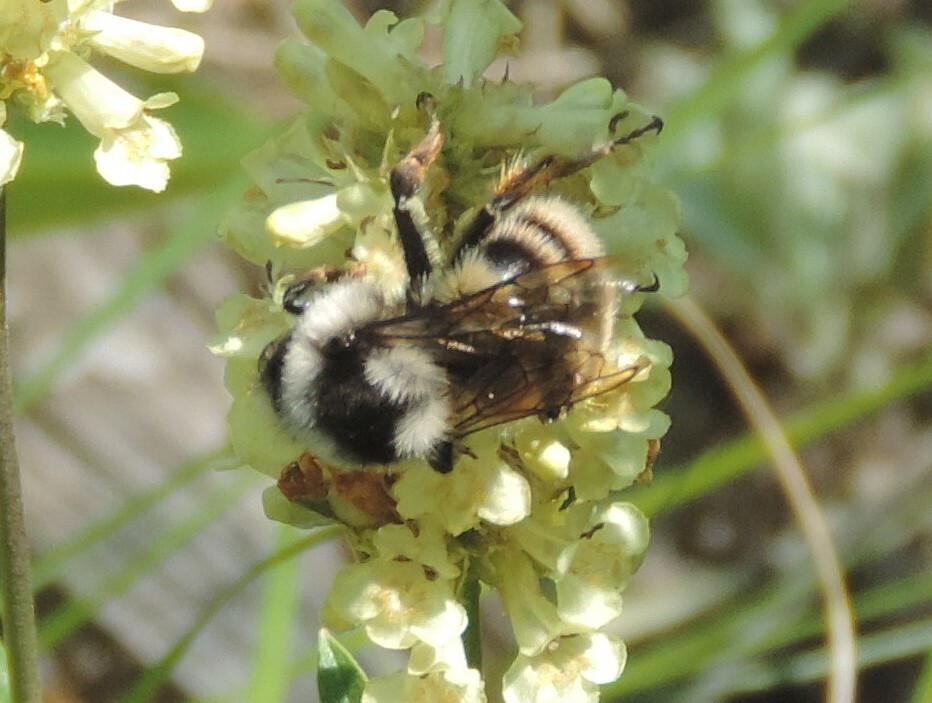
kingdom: Animalia
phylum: Arthropoda
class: Insecta
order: Hymenoptera
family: Apidae
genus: Bombus
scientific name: Bombus vancouverensis
